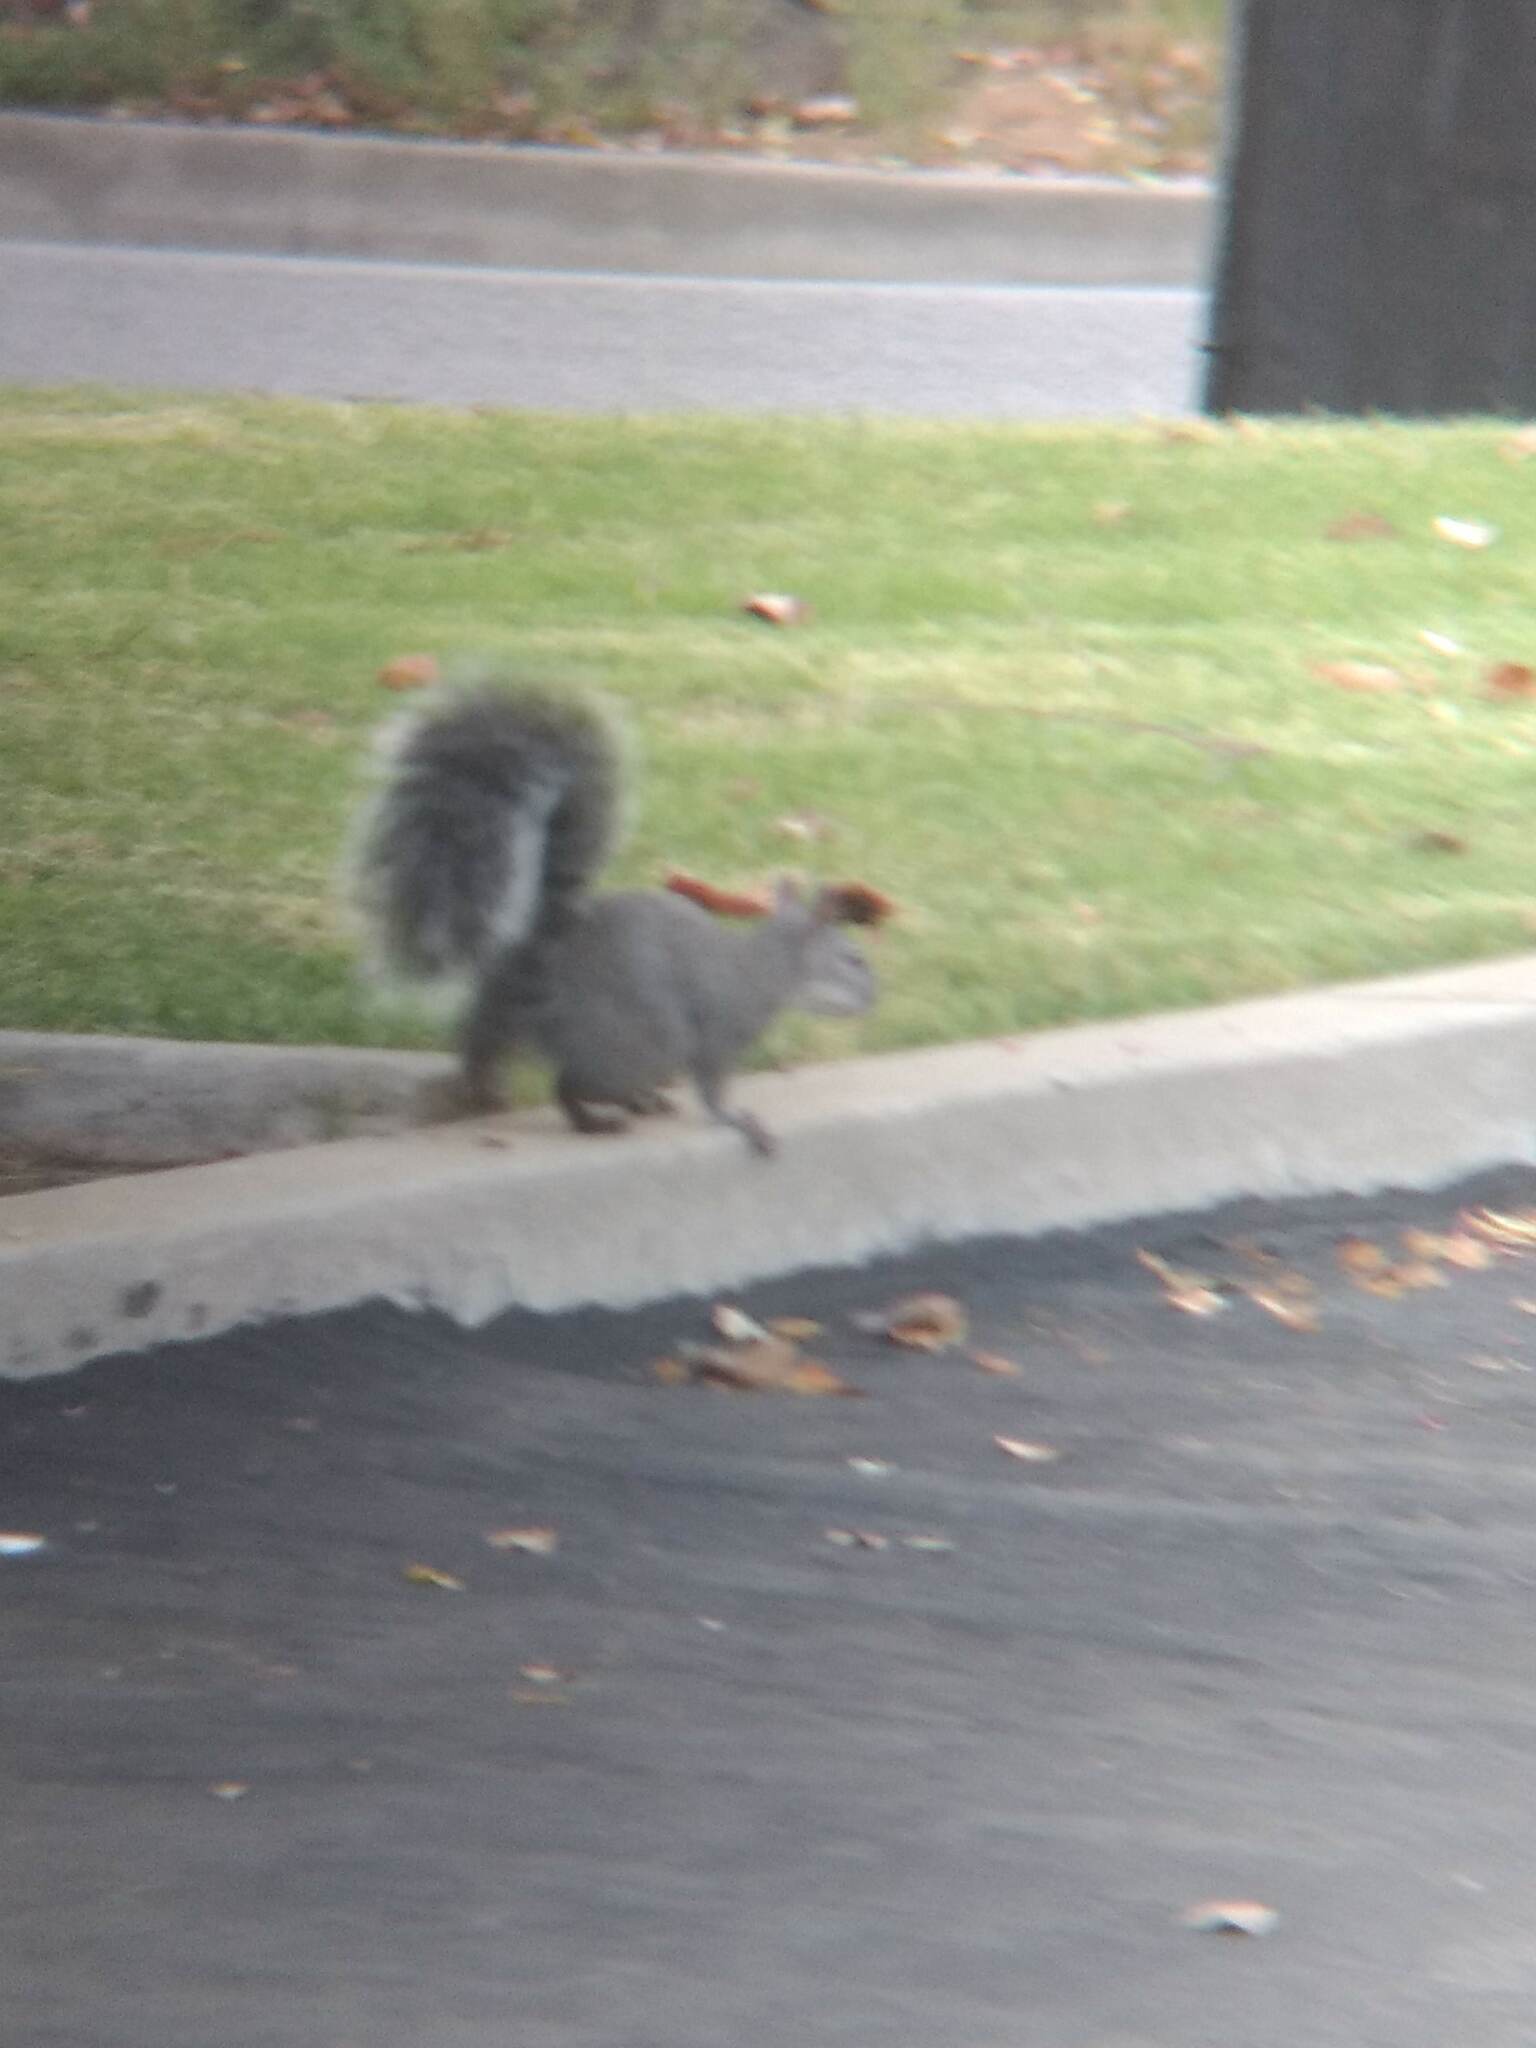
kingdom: Animalia
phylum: Chordata
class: Mammalia
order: Rodentia
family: Sciuridae
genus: Sciurus
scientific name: Sciurus griseus
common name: Western gray squirrel
